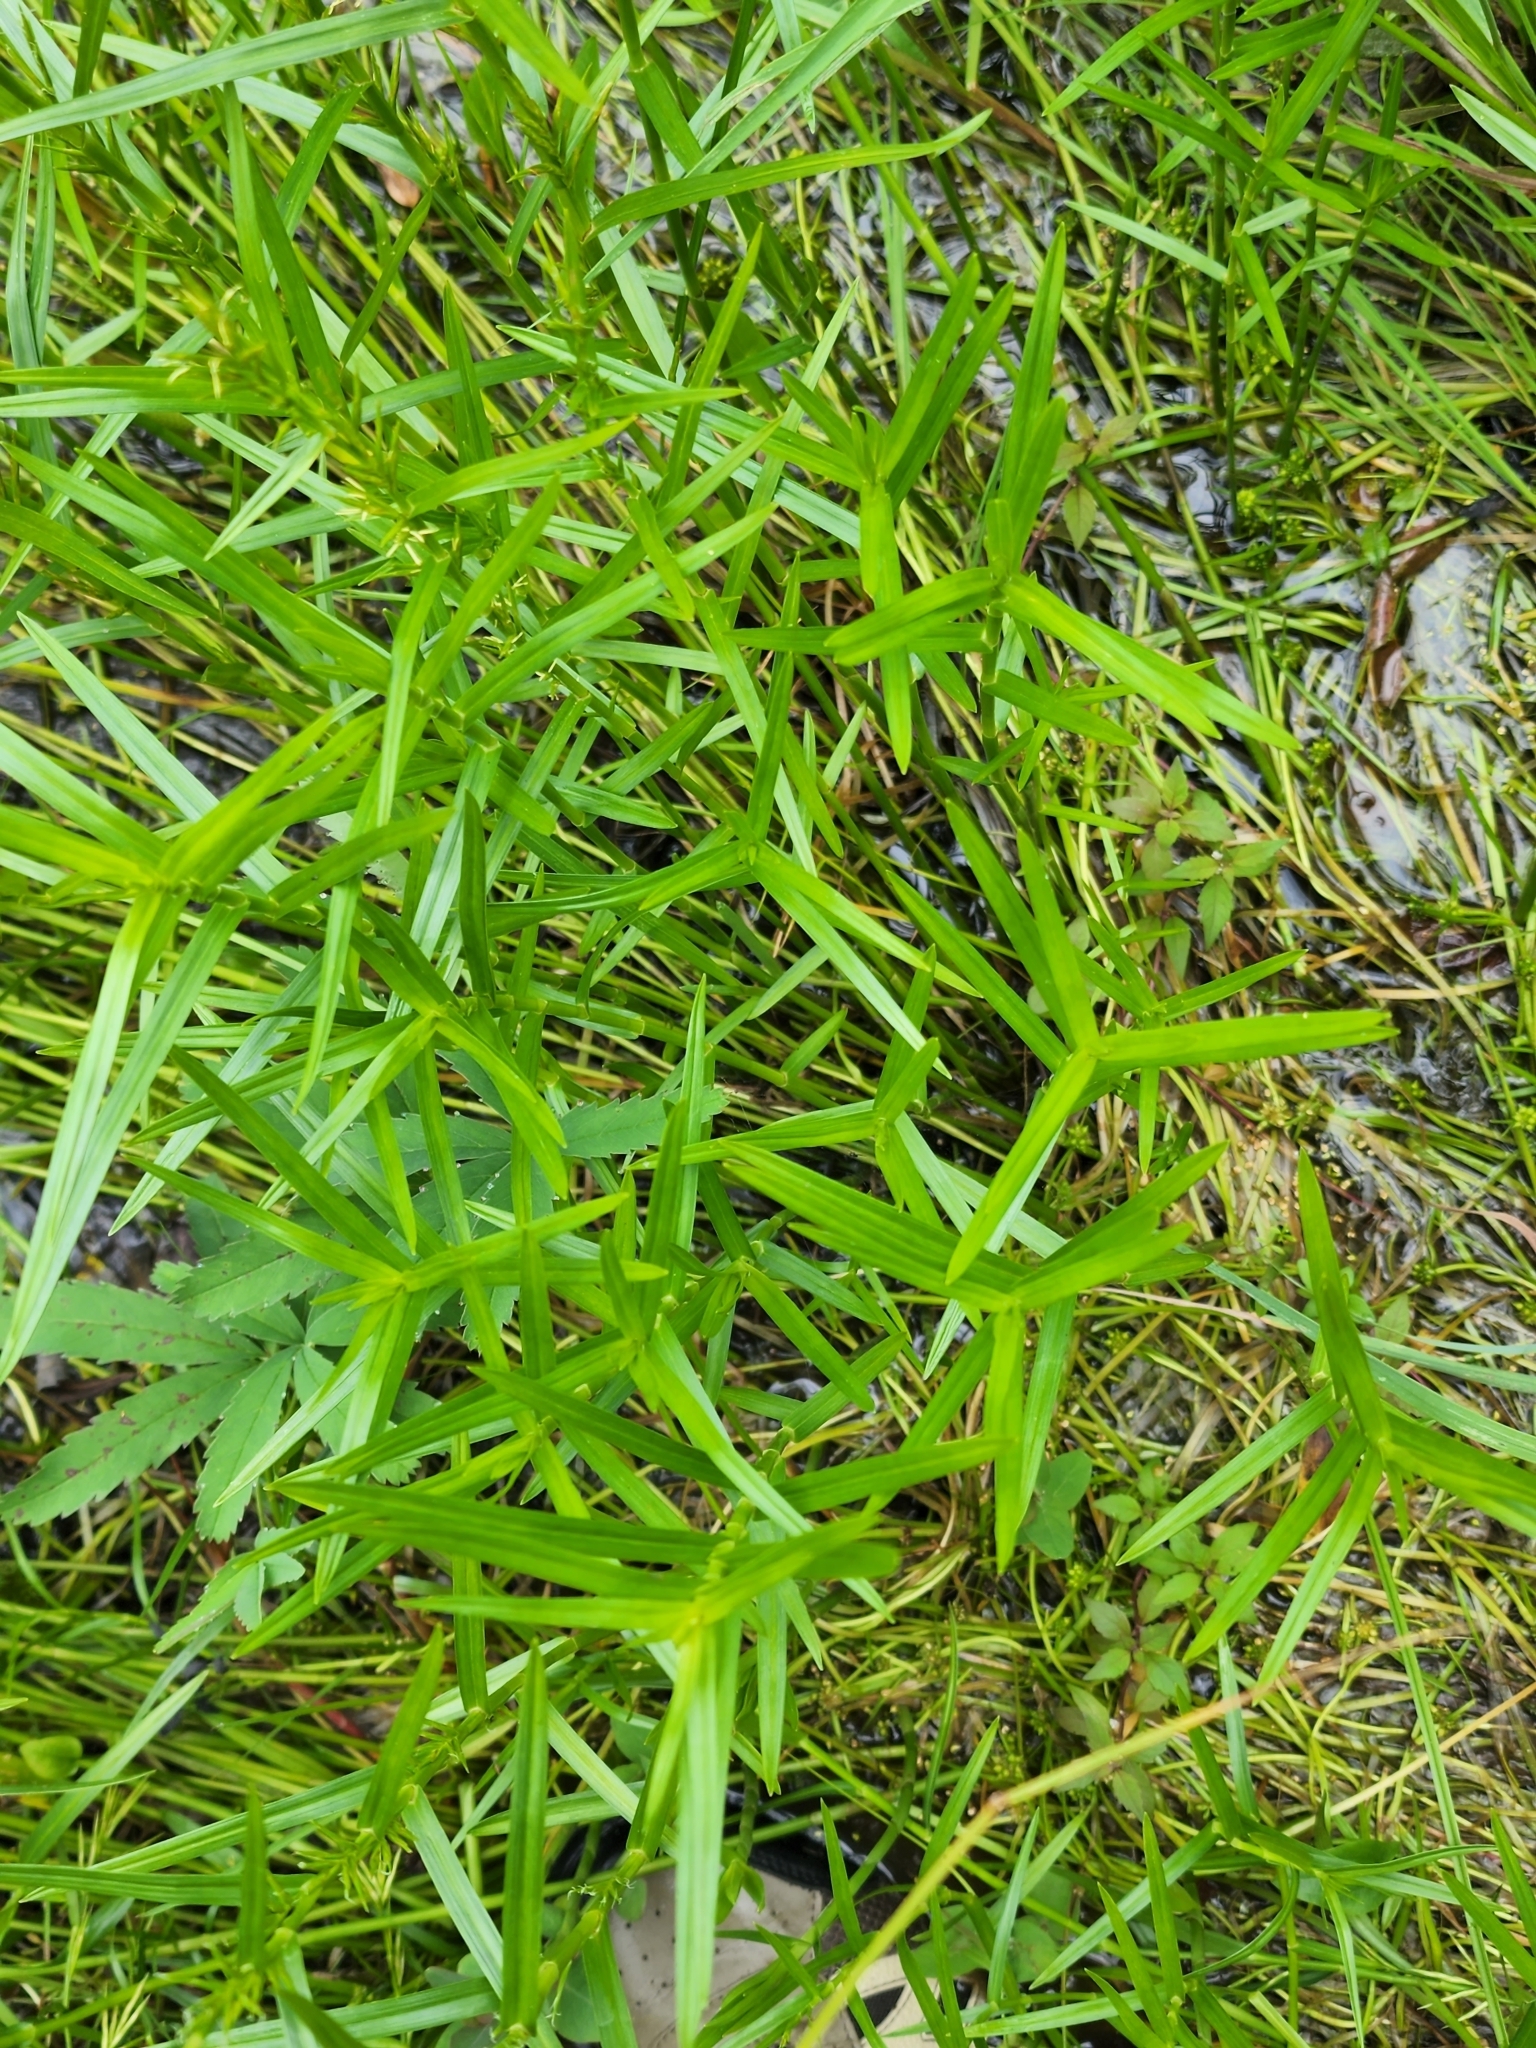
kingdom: Plantae
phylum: Tracheophyta
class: Liliopsida
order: Poales
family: Cyperaceae
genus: Dulichium
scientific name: Dulichium arundinaceum
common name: Three-way sedge
